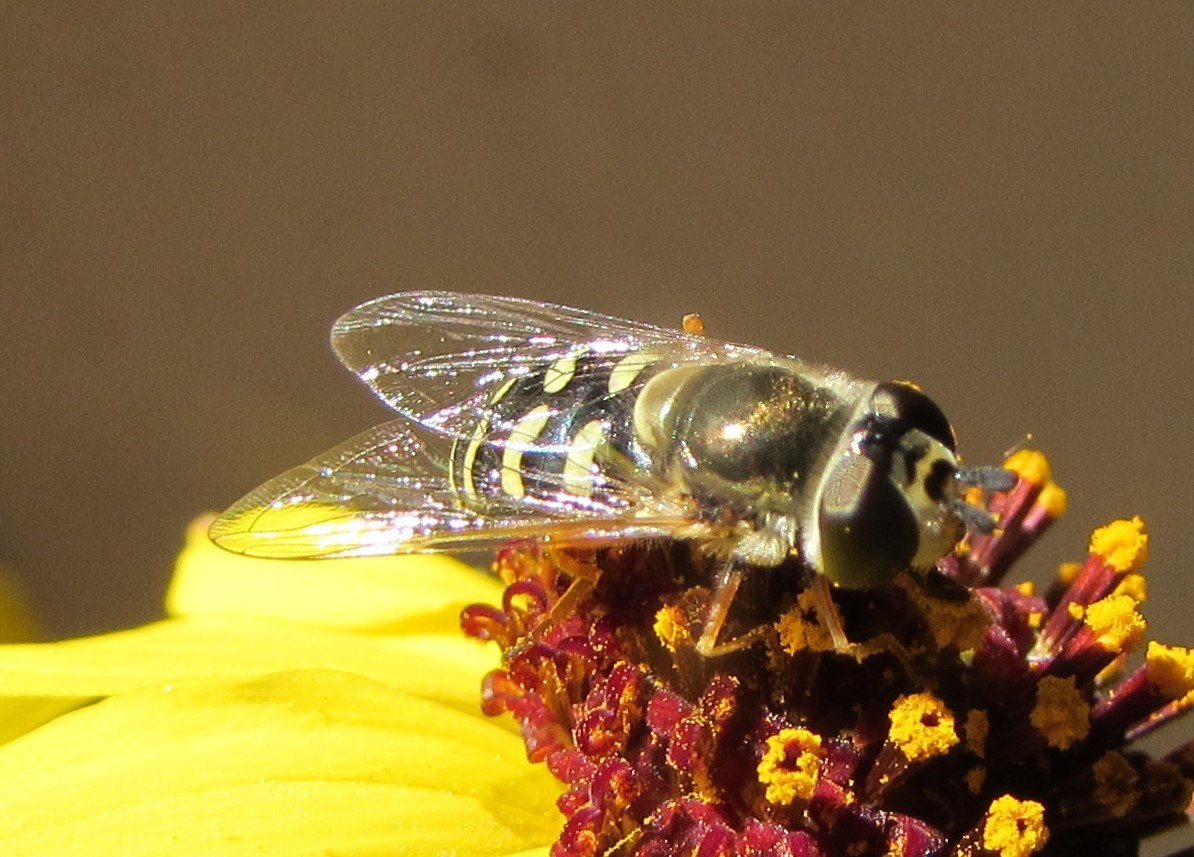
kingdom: Animalia
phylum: Arthropoda
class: Insecta
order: Diptera
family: Syrphidae
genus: Eupeodes
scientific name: Eupeodes volucris
